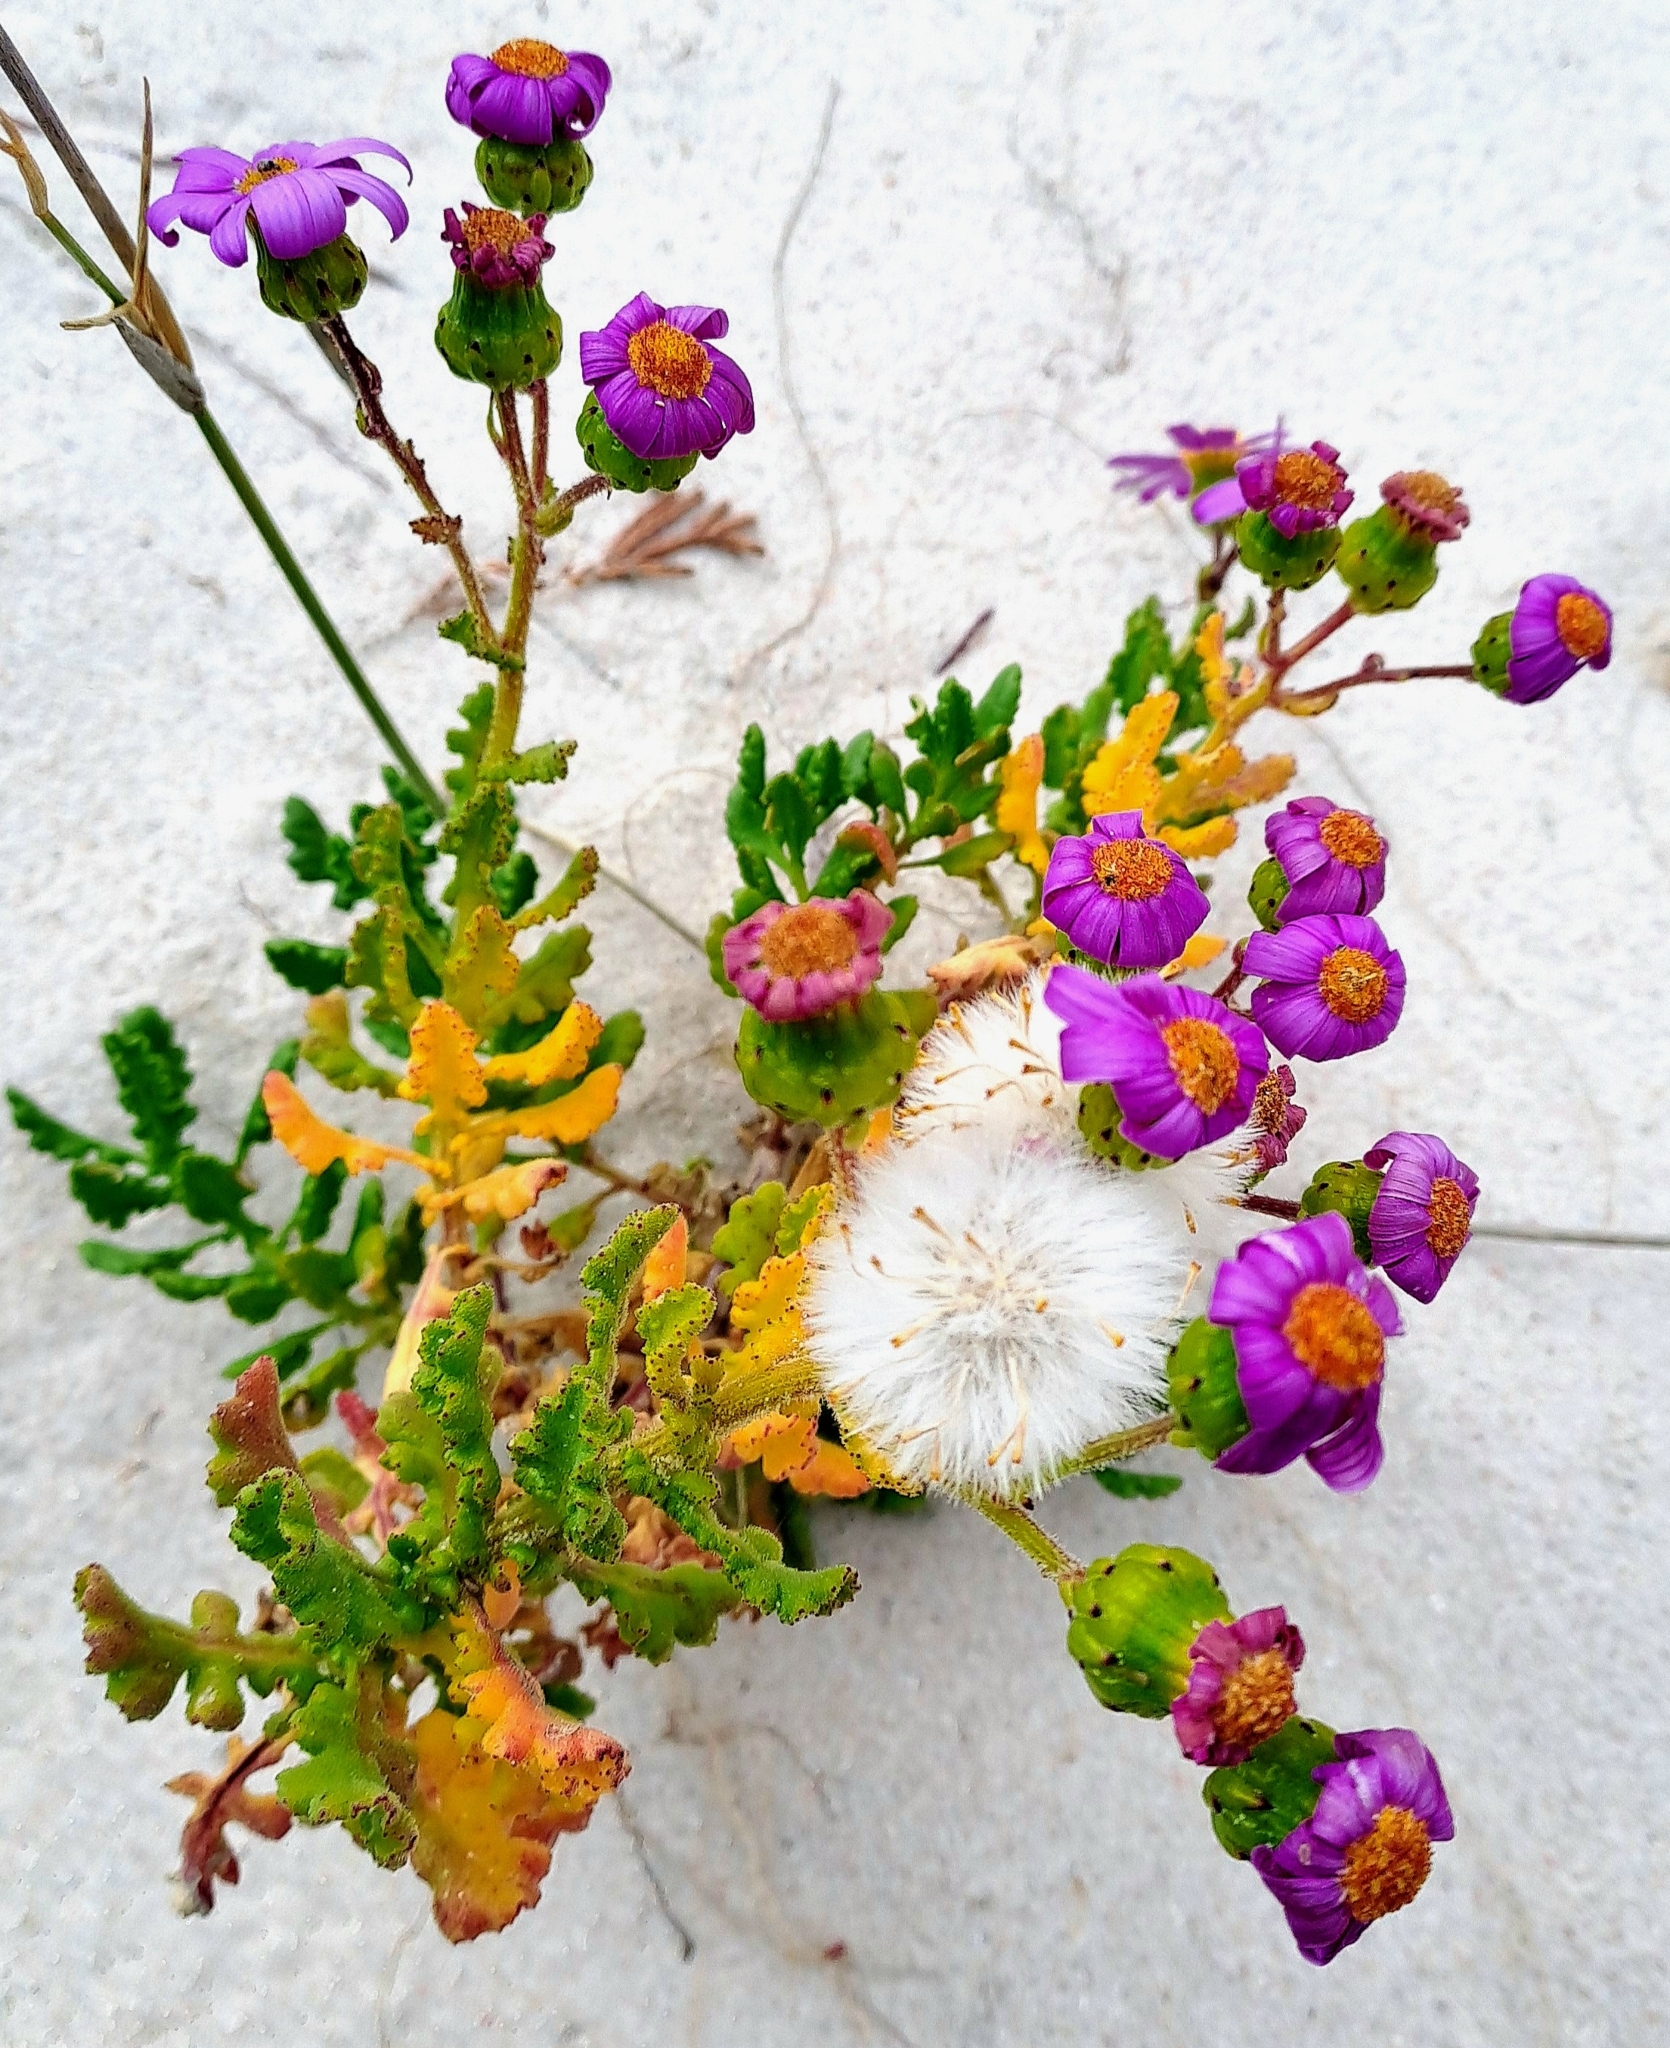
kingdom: Plantae
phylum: Tracheophyta
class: Magnoliopsida
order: Asterales
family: Asteraceae
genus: Senecio
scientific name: Senecio elegans
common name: Purple groundsel
